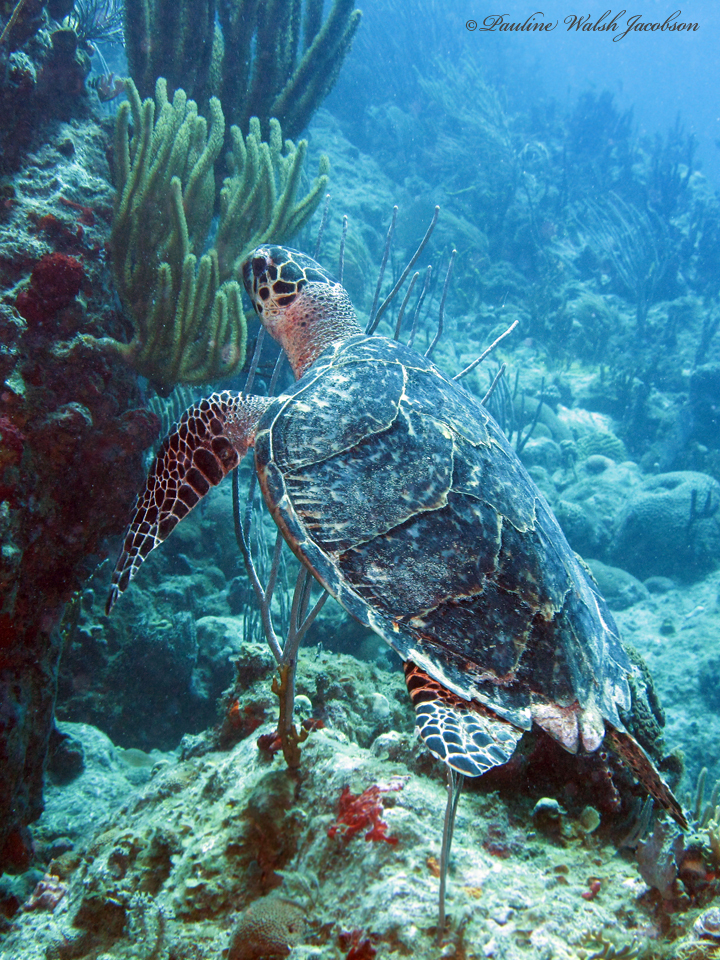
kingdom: Animalia
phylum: Chordata
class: Testudines
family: Cheloniidae
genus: Eretmochelys
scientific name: Eretmochelys imbricata
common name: Hawksbill turtle
